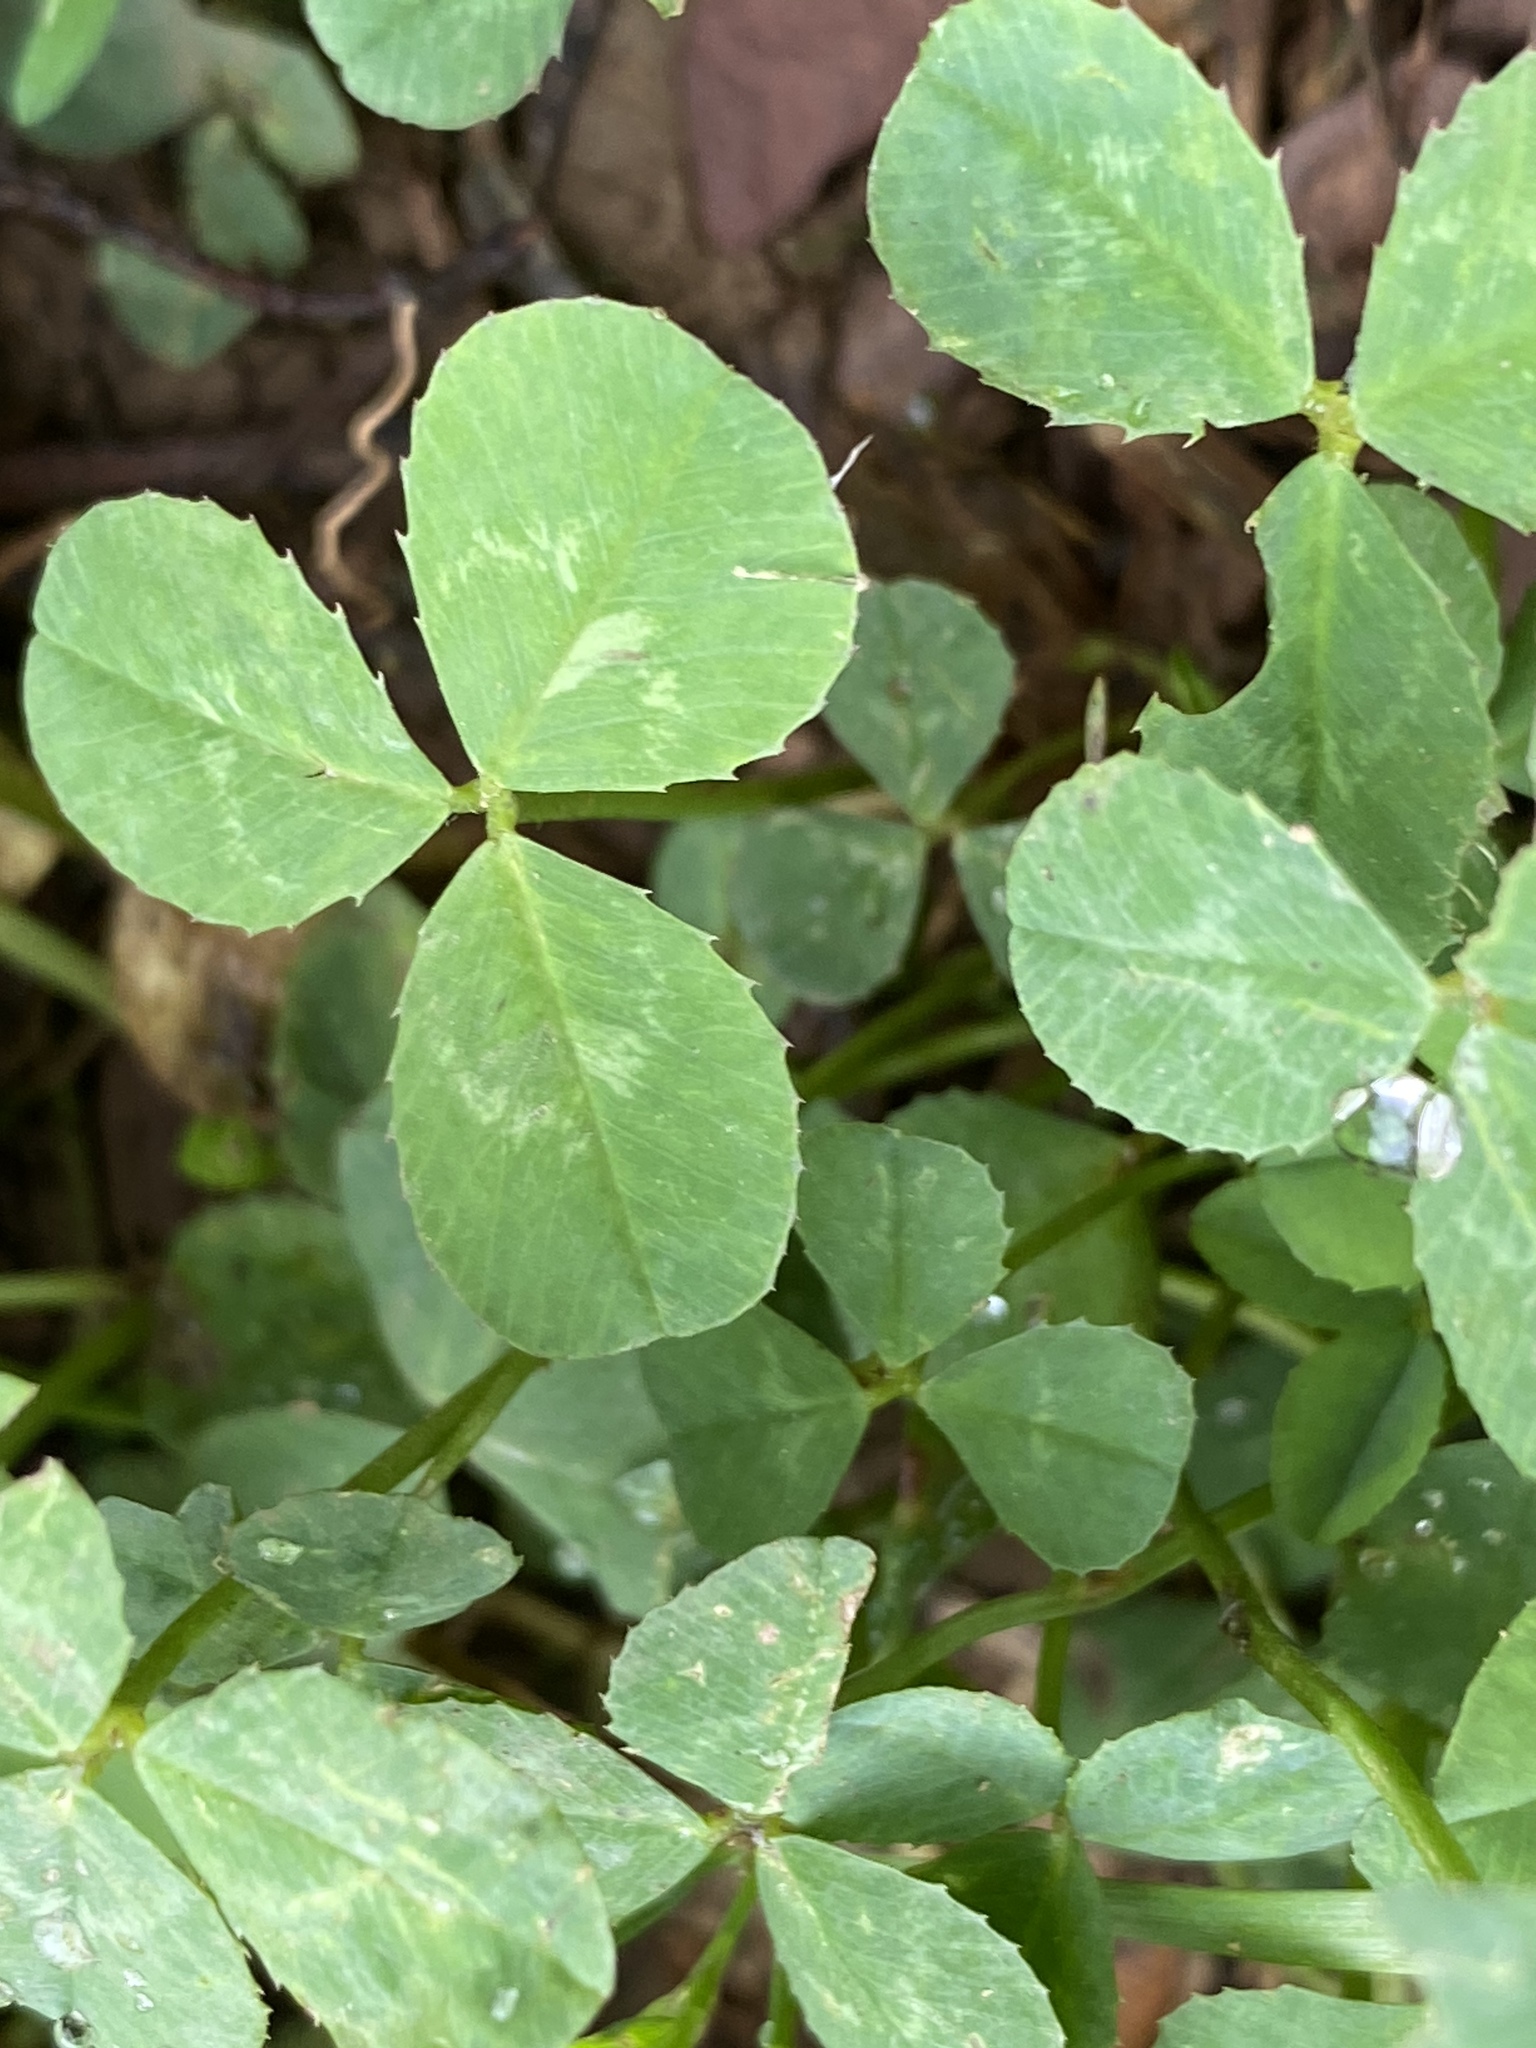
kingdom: Plantae
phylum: Tracheophyta
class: Magnoliopsida
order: Fabales
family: Fabaceae
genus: Trifolium
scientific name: Trifolium repens
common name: White clover
